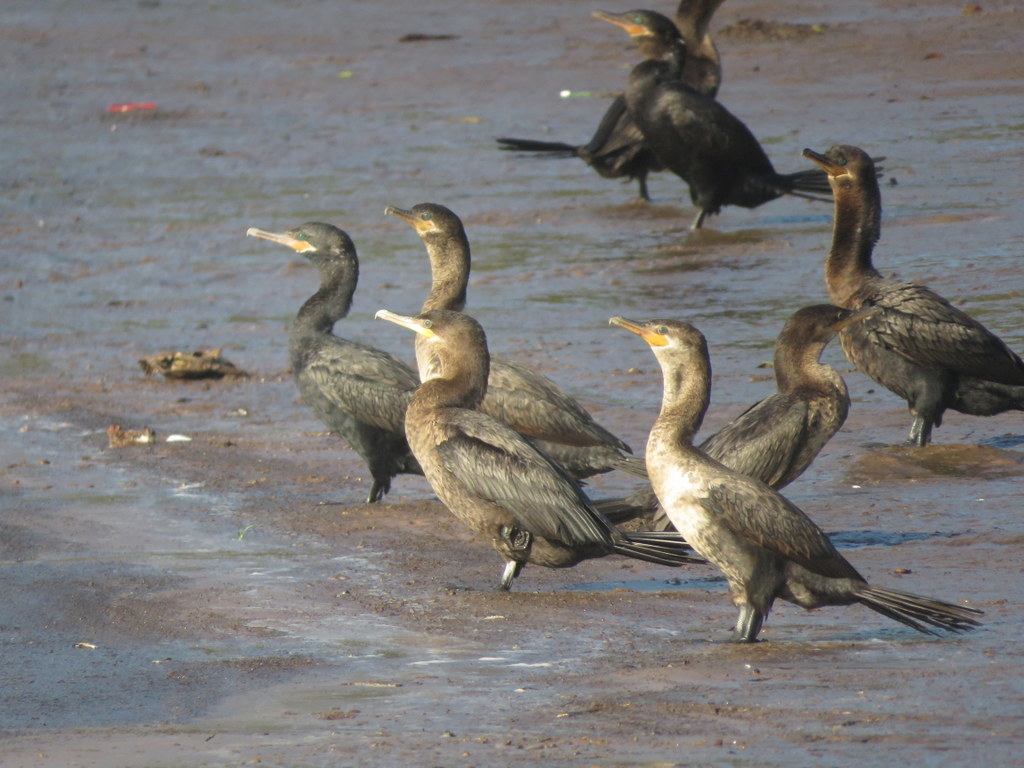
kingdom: Animalia
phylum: Chordata
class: Aves
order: Suliformes
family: Phalacrocoracidae
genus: Phalacrocorax
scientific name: Phalacrocorax brasilianus
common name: Neotropic cormorant
